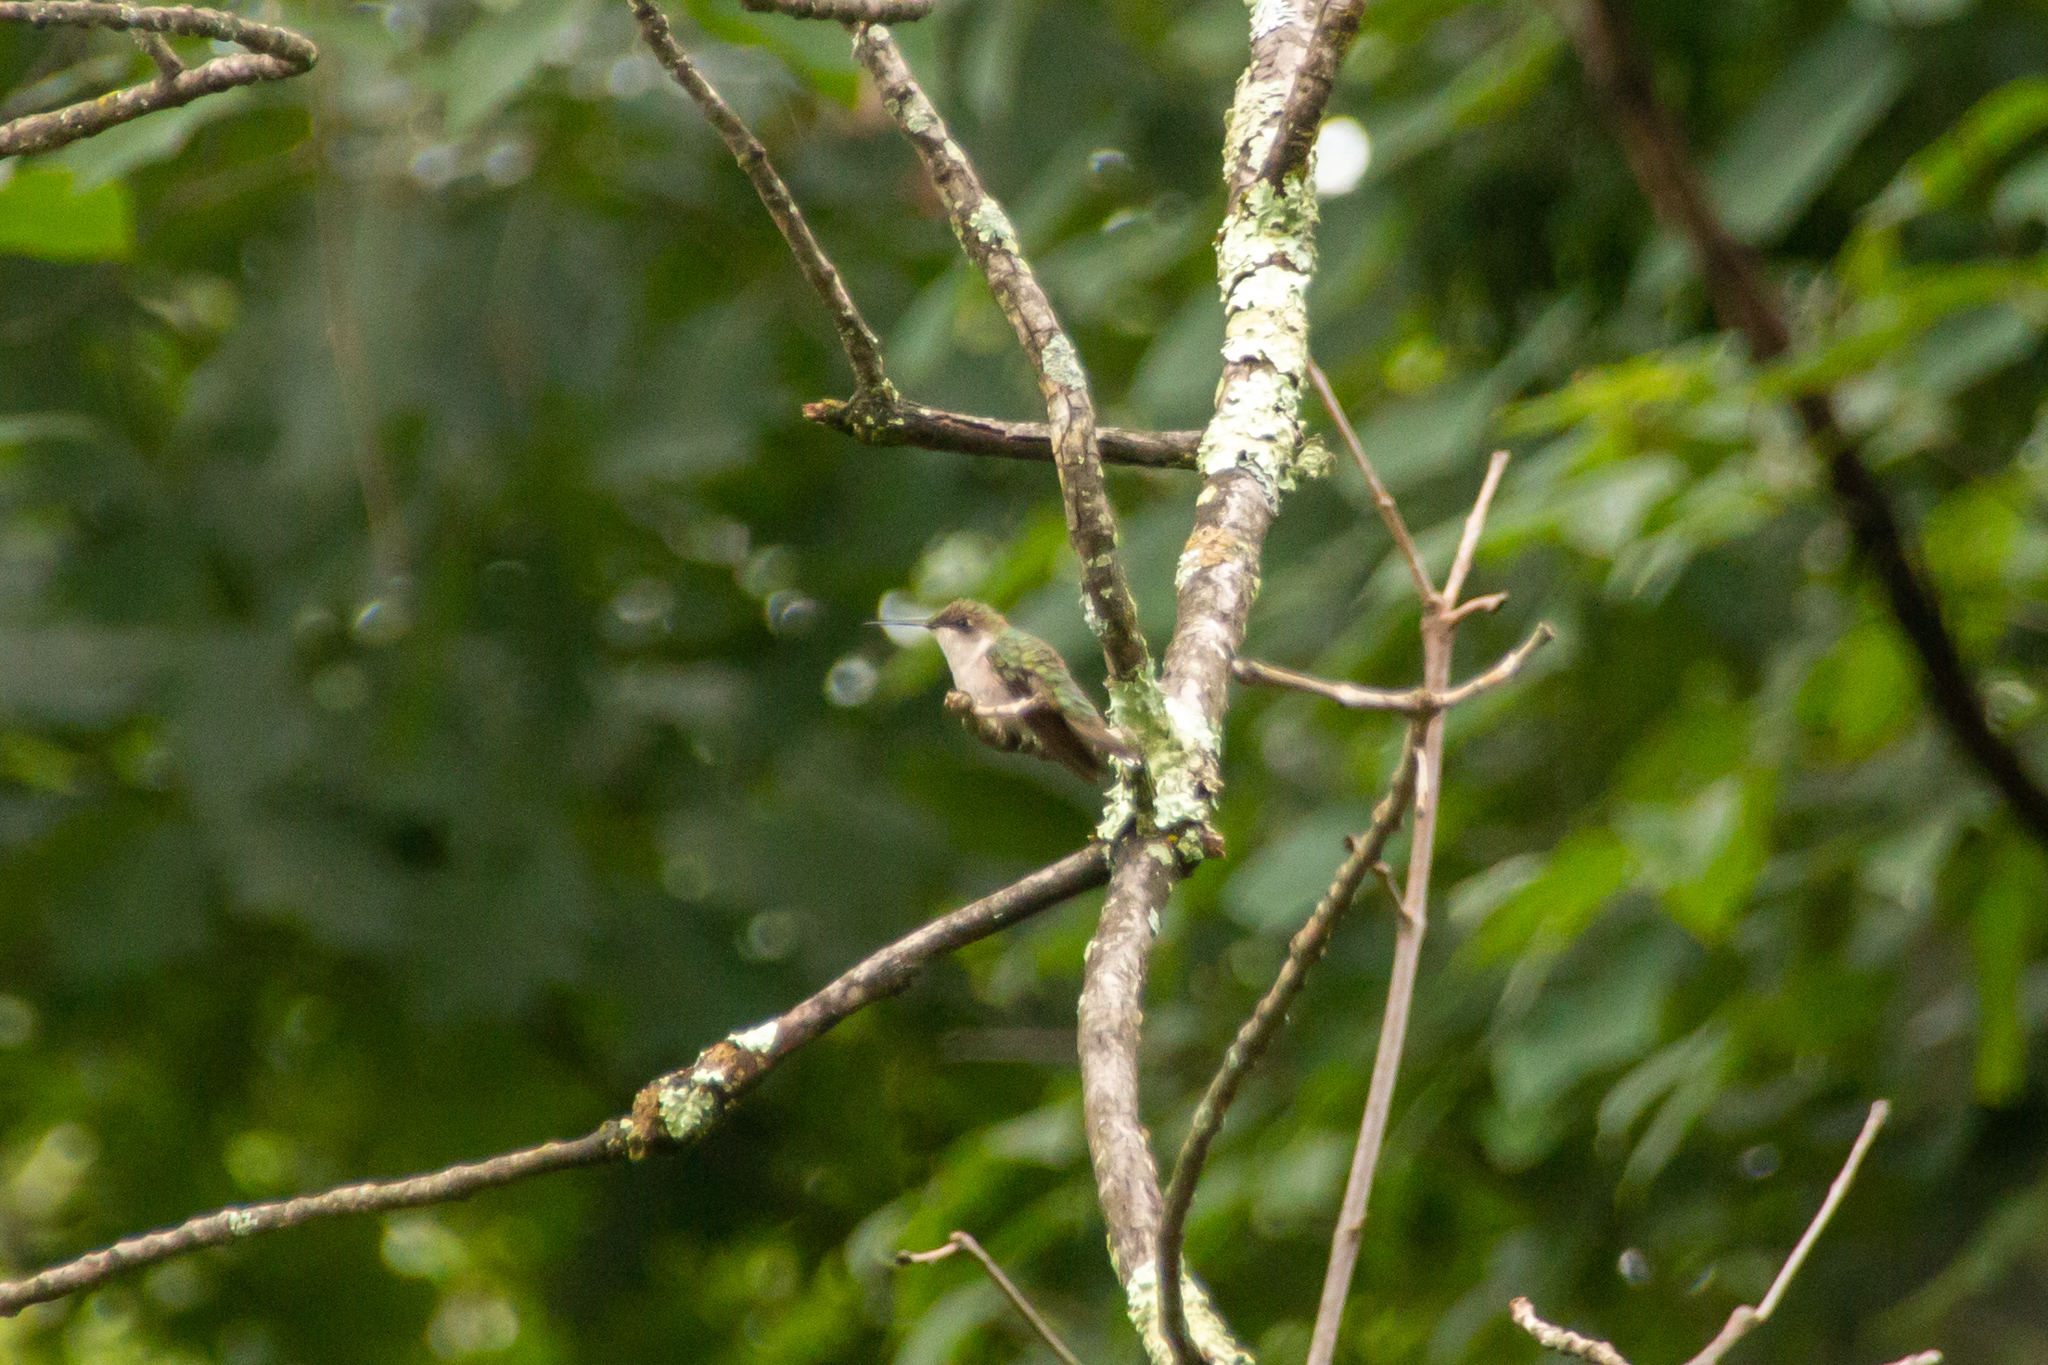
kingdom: Animalia
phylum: Chordata
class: Aves
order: Apodiformes
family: Trochilidae
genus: Archilochus
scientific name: Archilochus colubris
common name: Ruby-throated hummingbird
